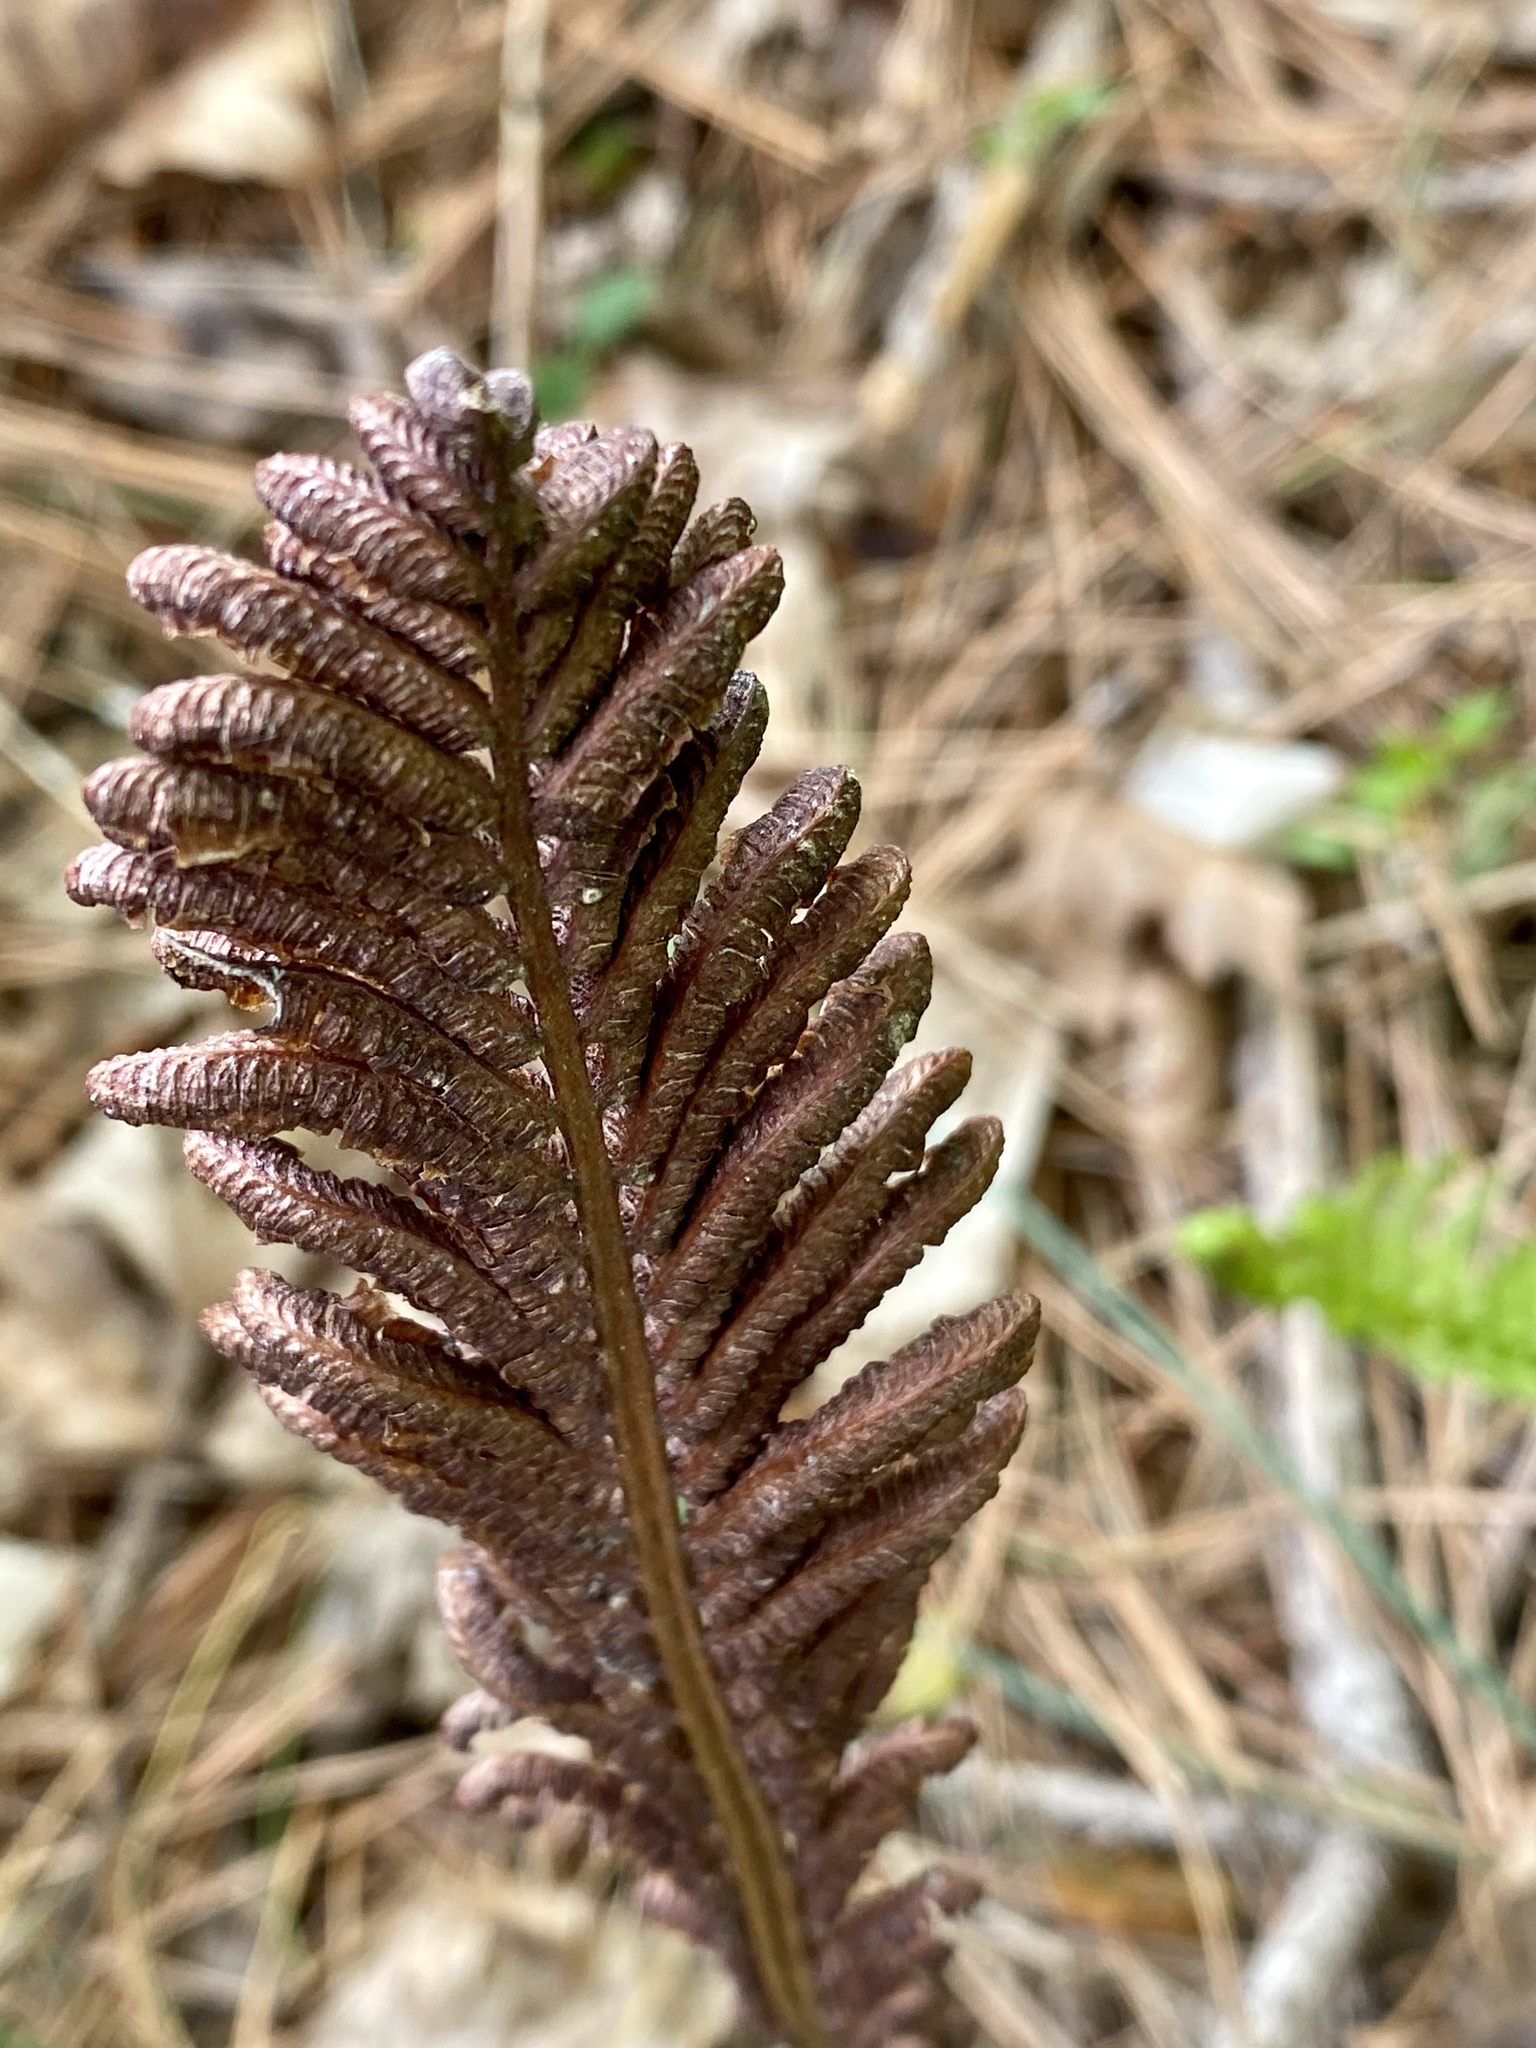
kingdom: Plantae
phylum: Tracheophyta
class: Polypodiopsida
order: Polypodiales
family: Onocleaceae
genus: Matteuccia
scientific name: Matteuccia struthiopteris
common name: Ostrich fern
